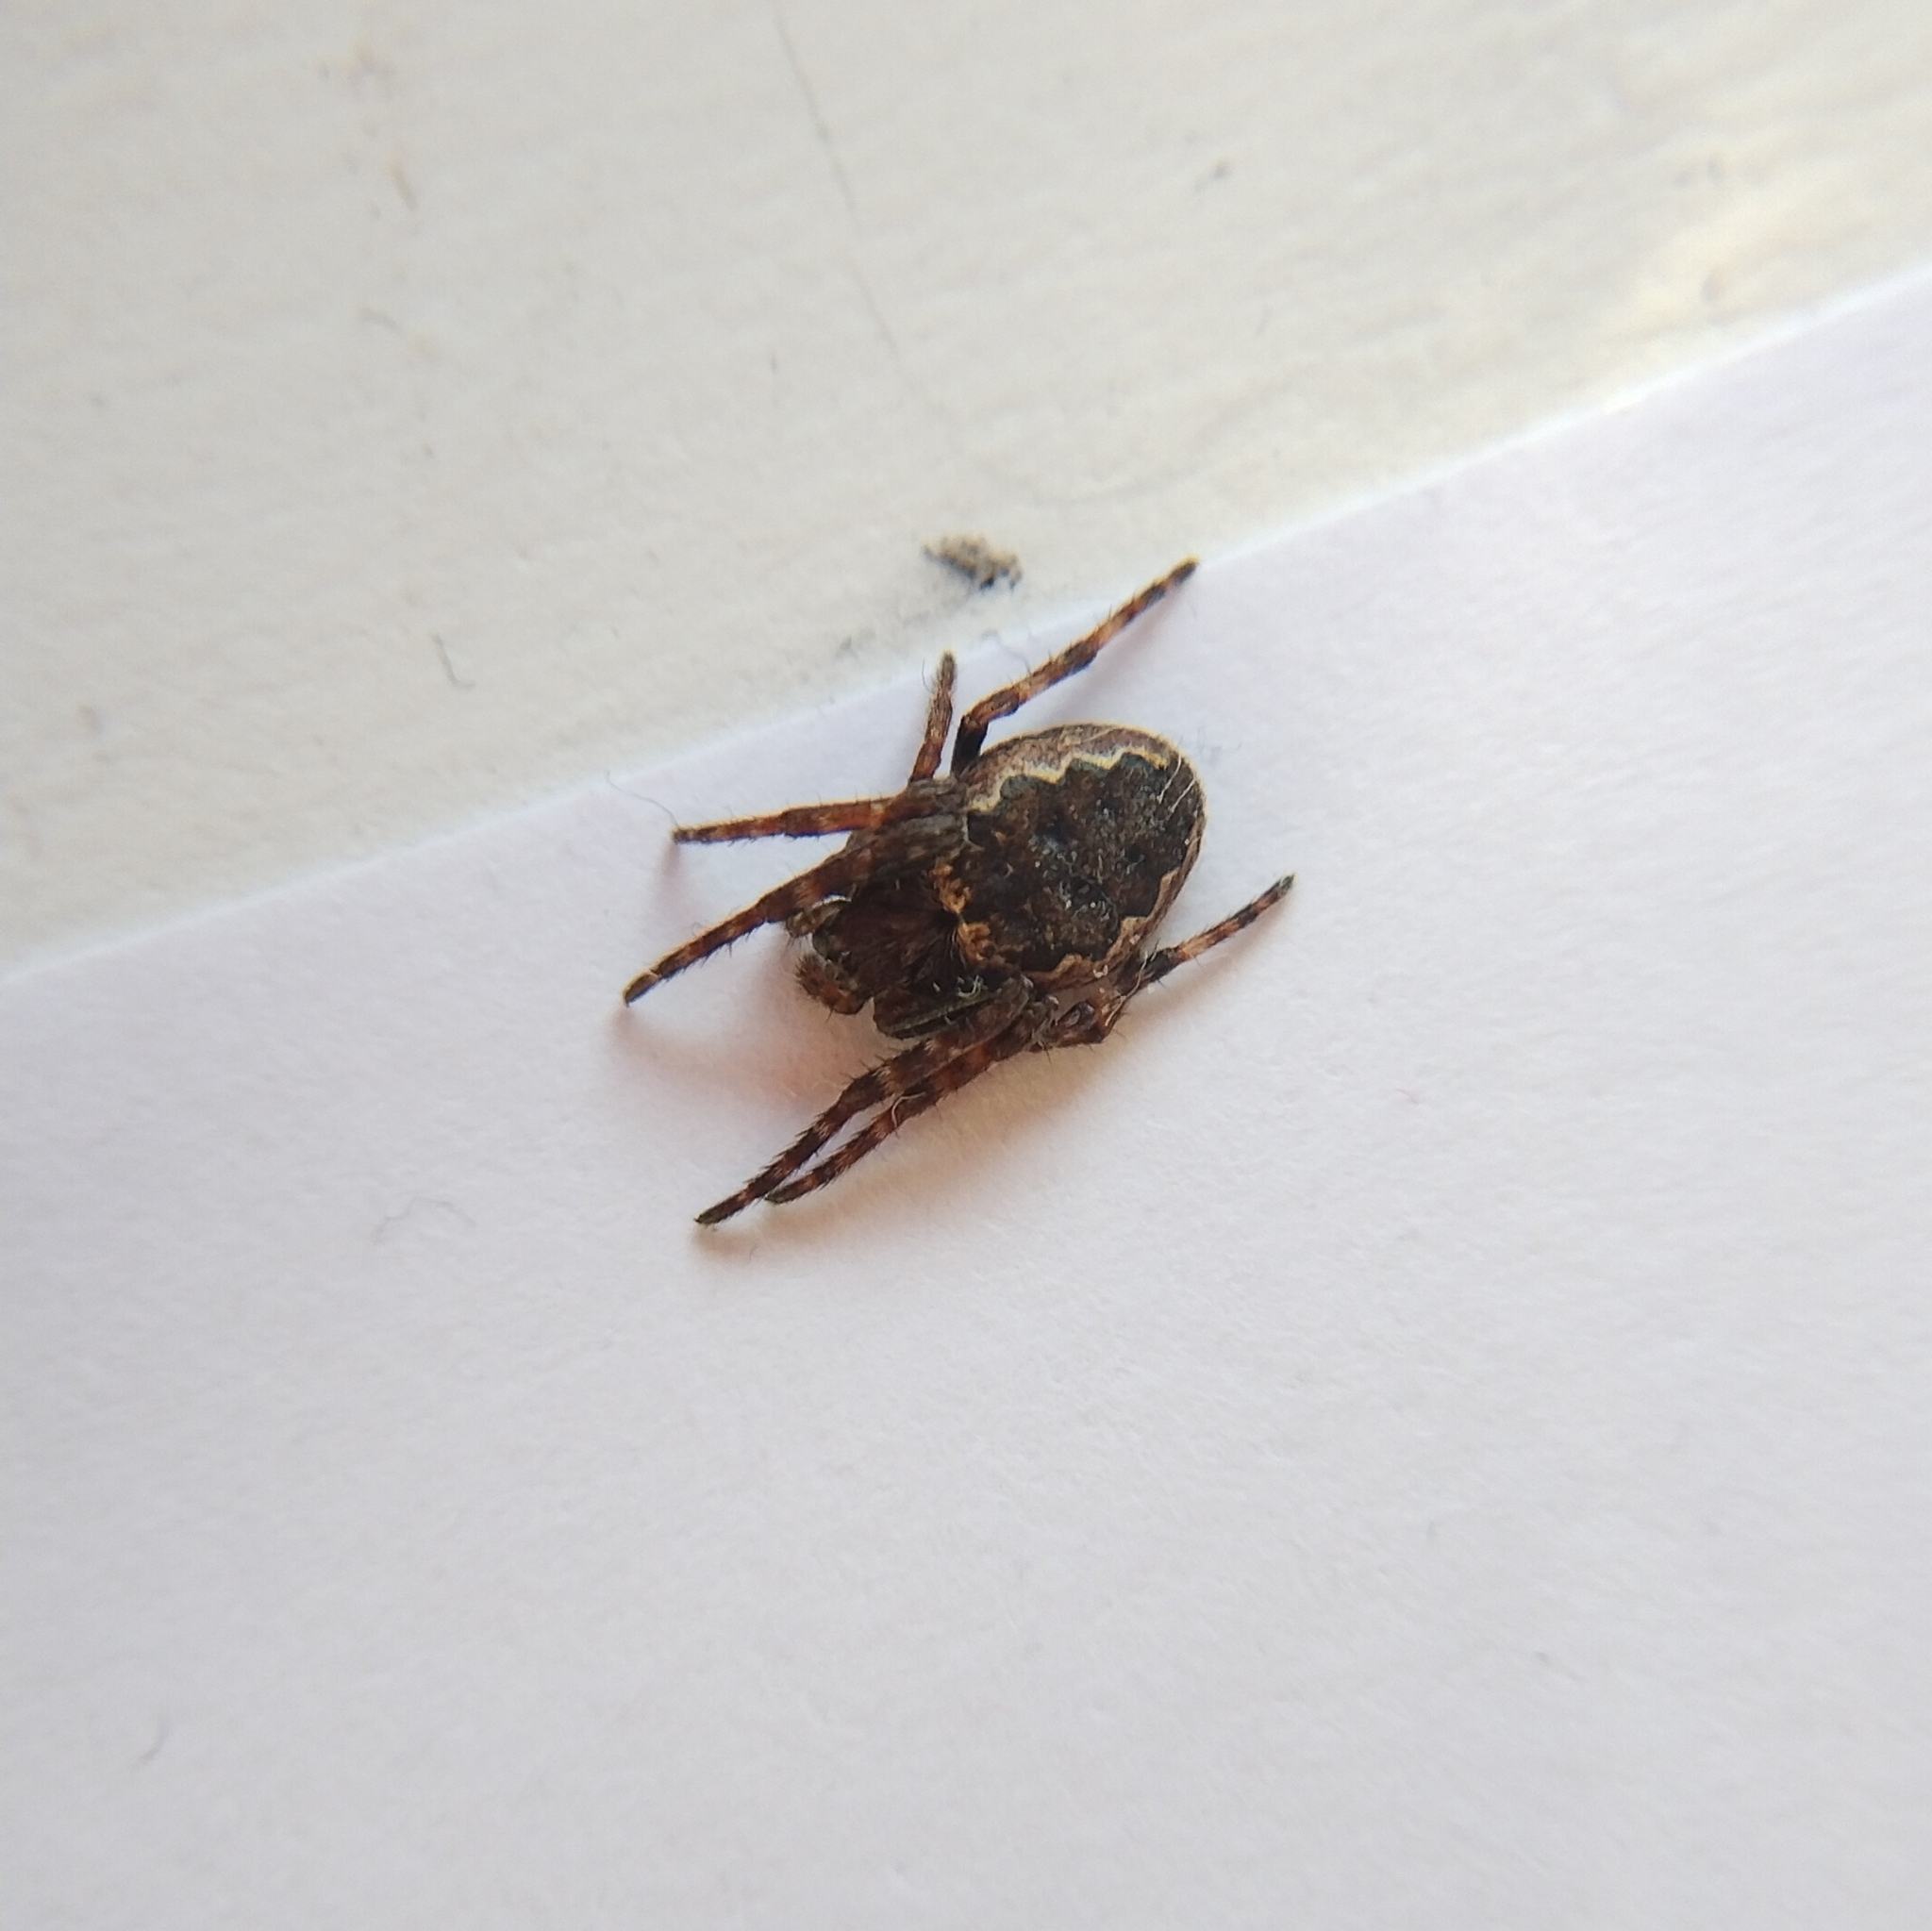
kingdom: Animalia
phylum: Arthropoda
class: Arachnida
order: Araneae
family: Araneidae
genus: Nuctenea
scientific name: Nuctenea umbratica
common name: Toad spider
